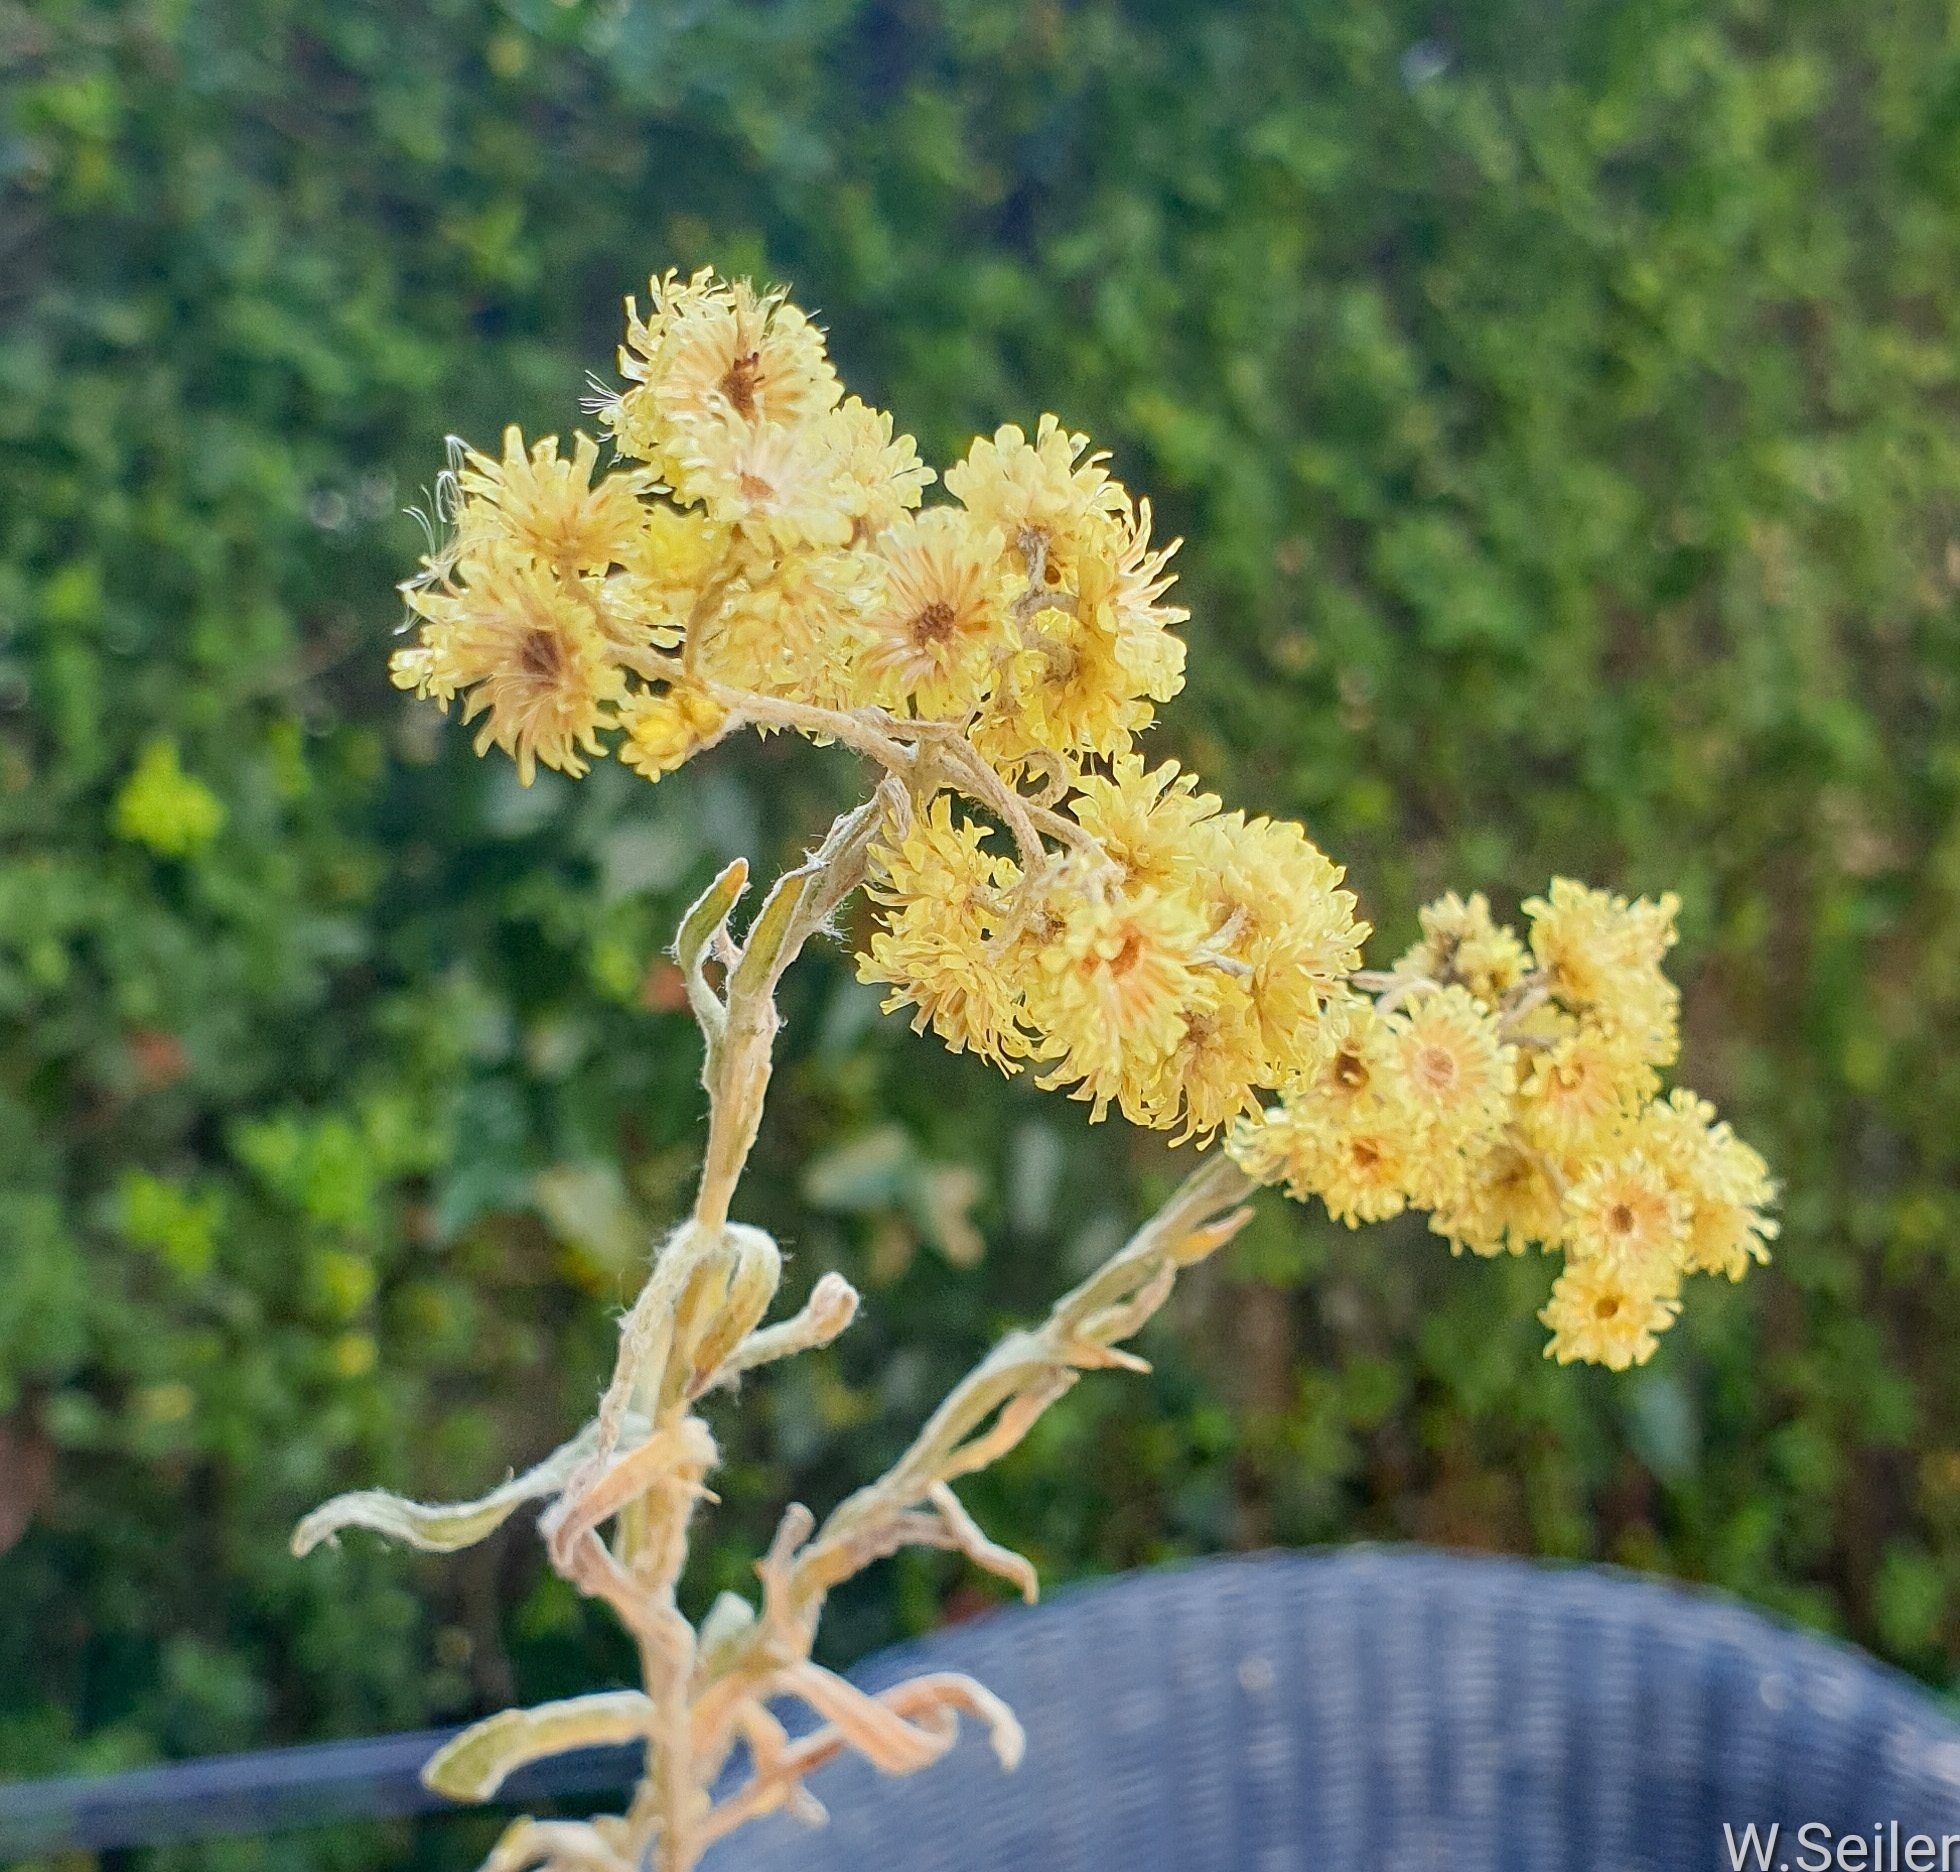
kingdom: Plantae
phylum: Tracheophyta
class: Magnoliopsida
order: Asterales
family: Asteraceae
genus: Helichrysum
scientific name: Helichrysum arenarium
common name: Strawflower
